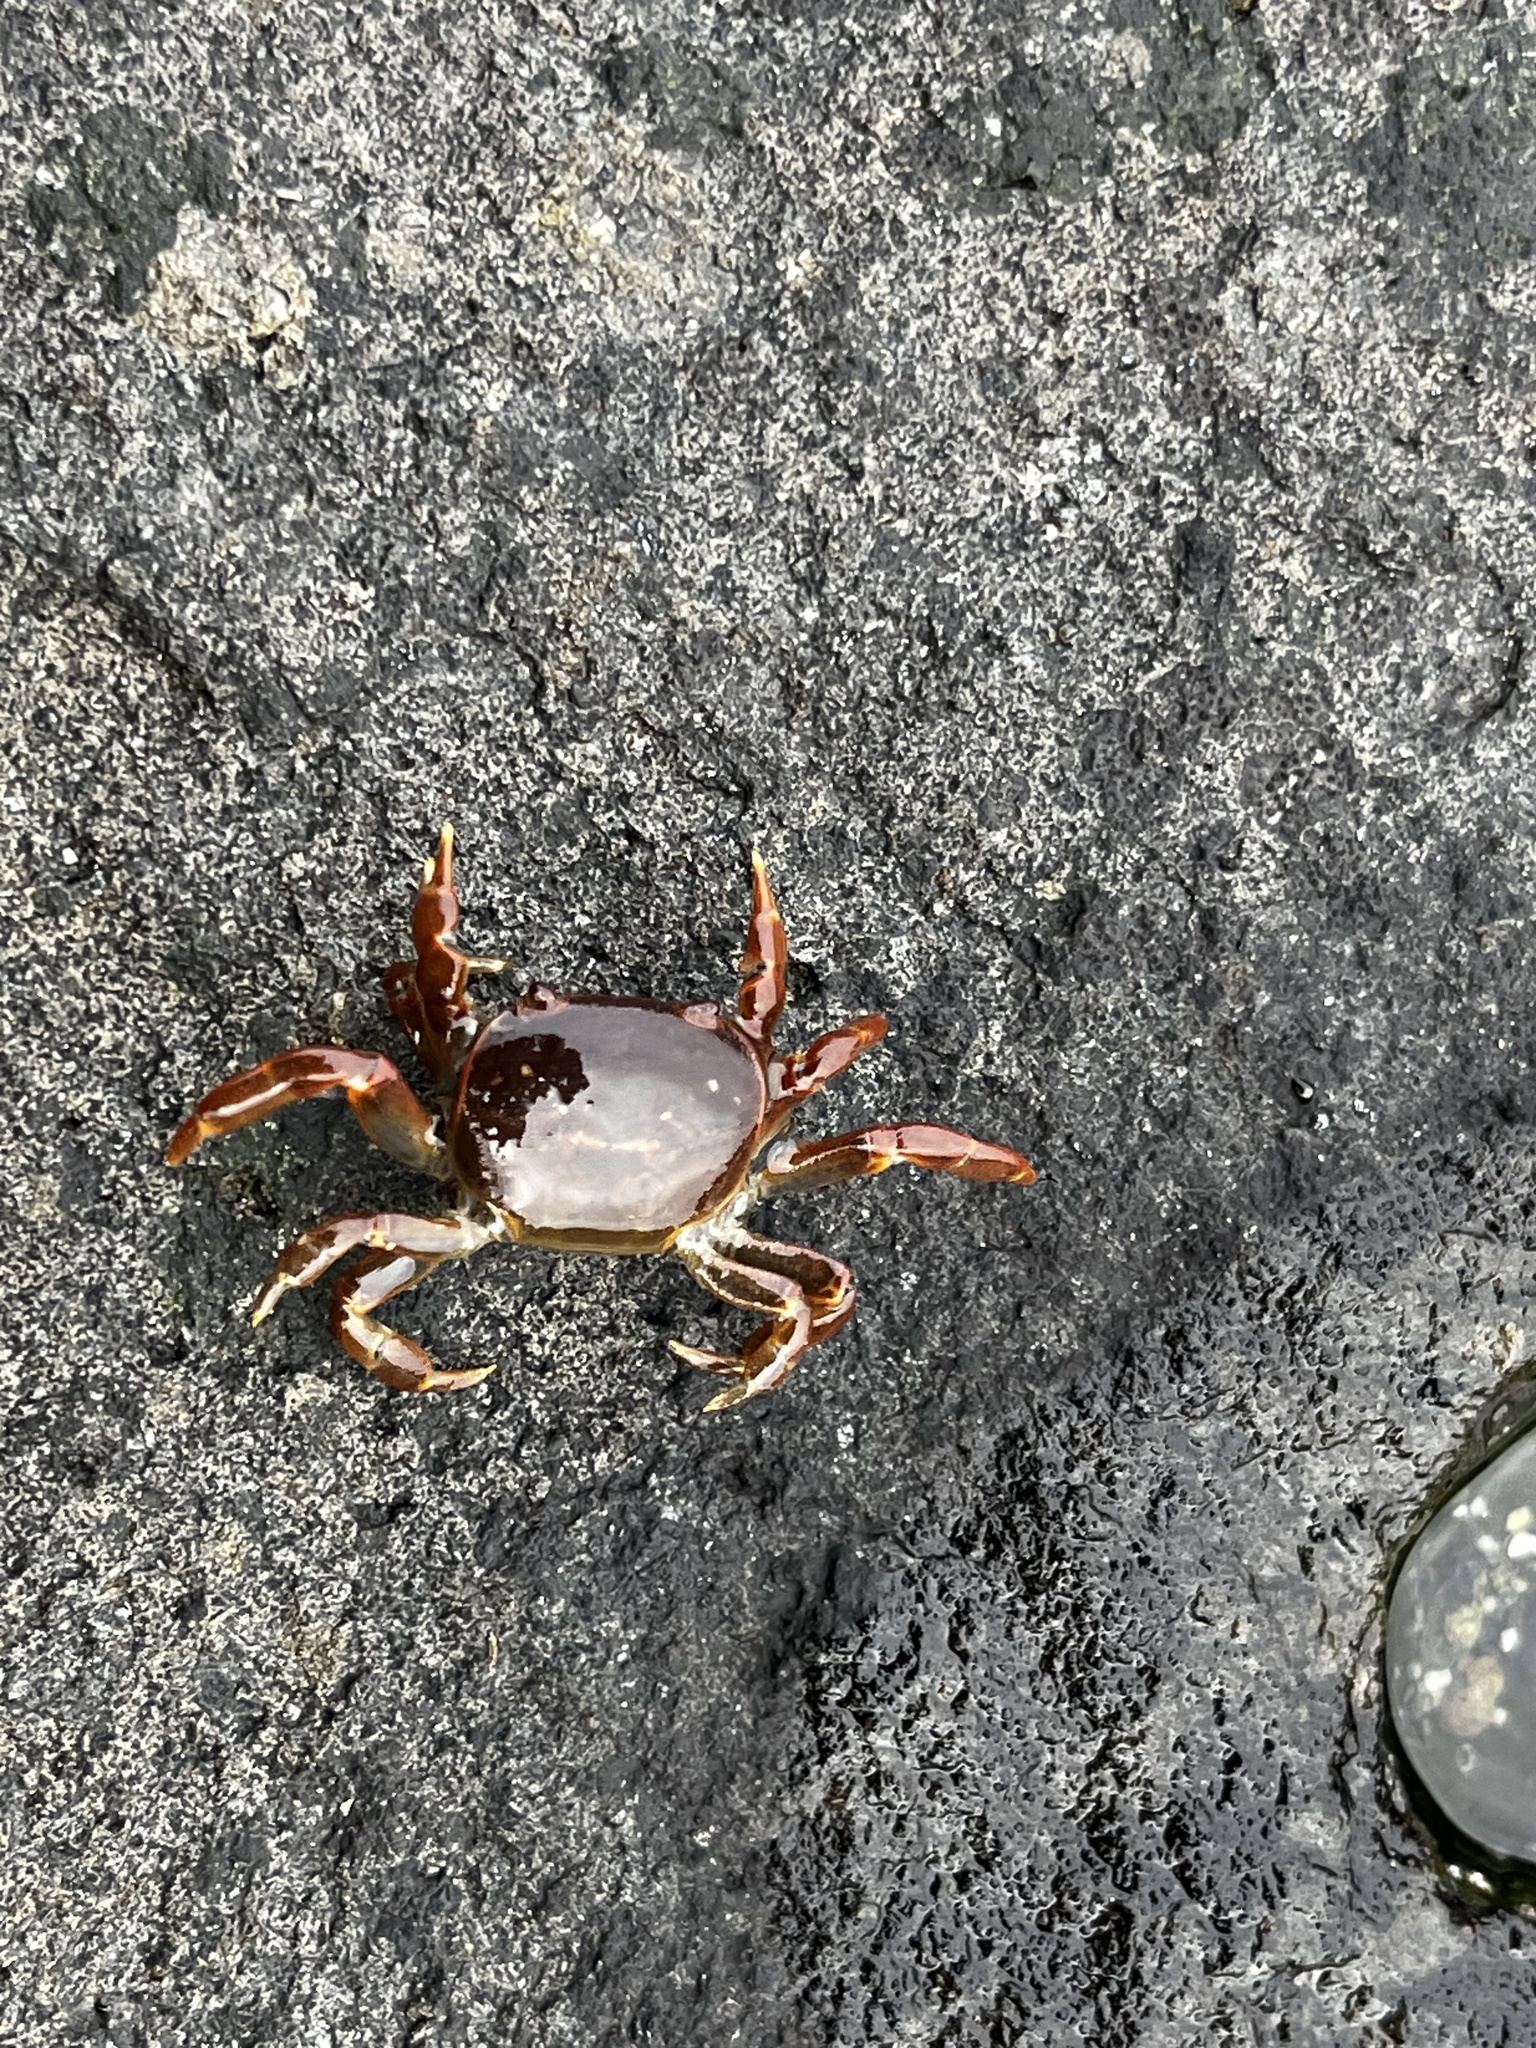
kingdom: Animalia
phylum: Arthropoda
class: Malacostraca
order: Decapoda
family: Varunidae
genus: Cyclograpsus
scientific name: Cyclograpsus cinereus
